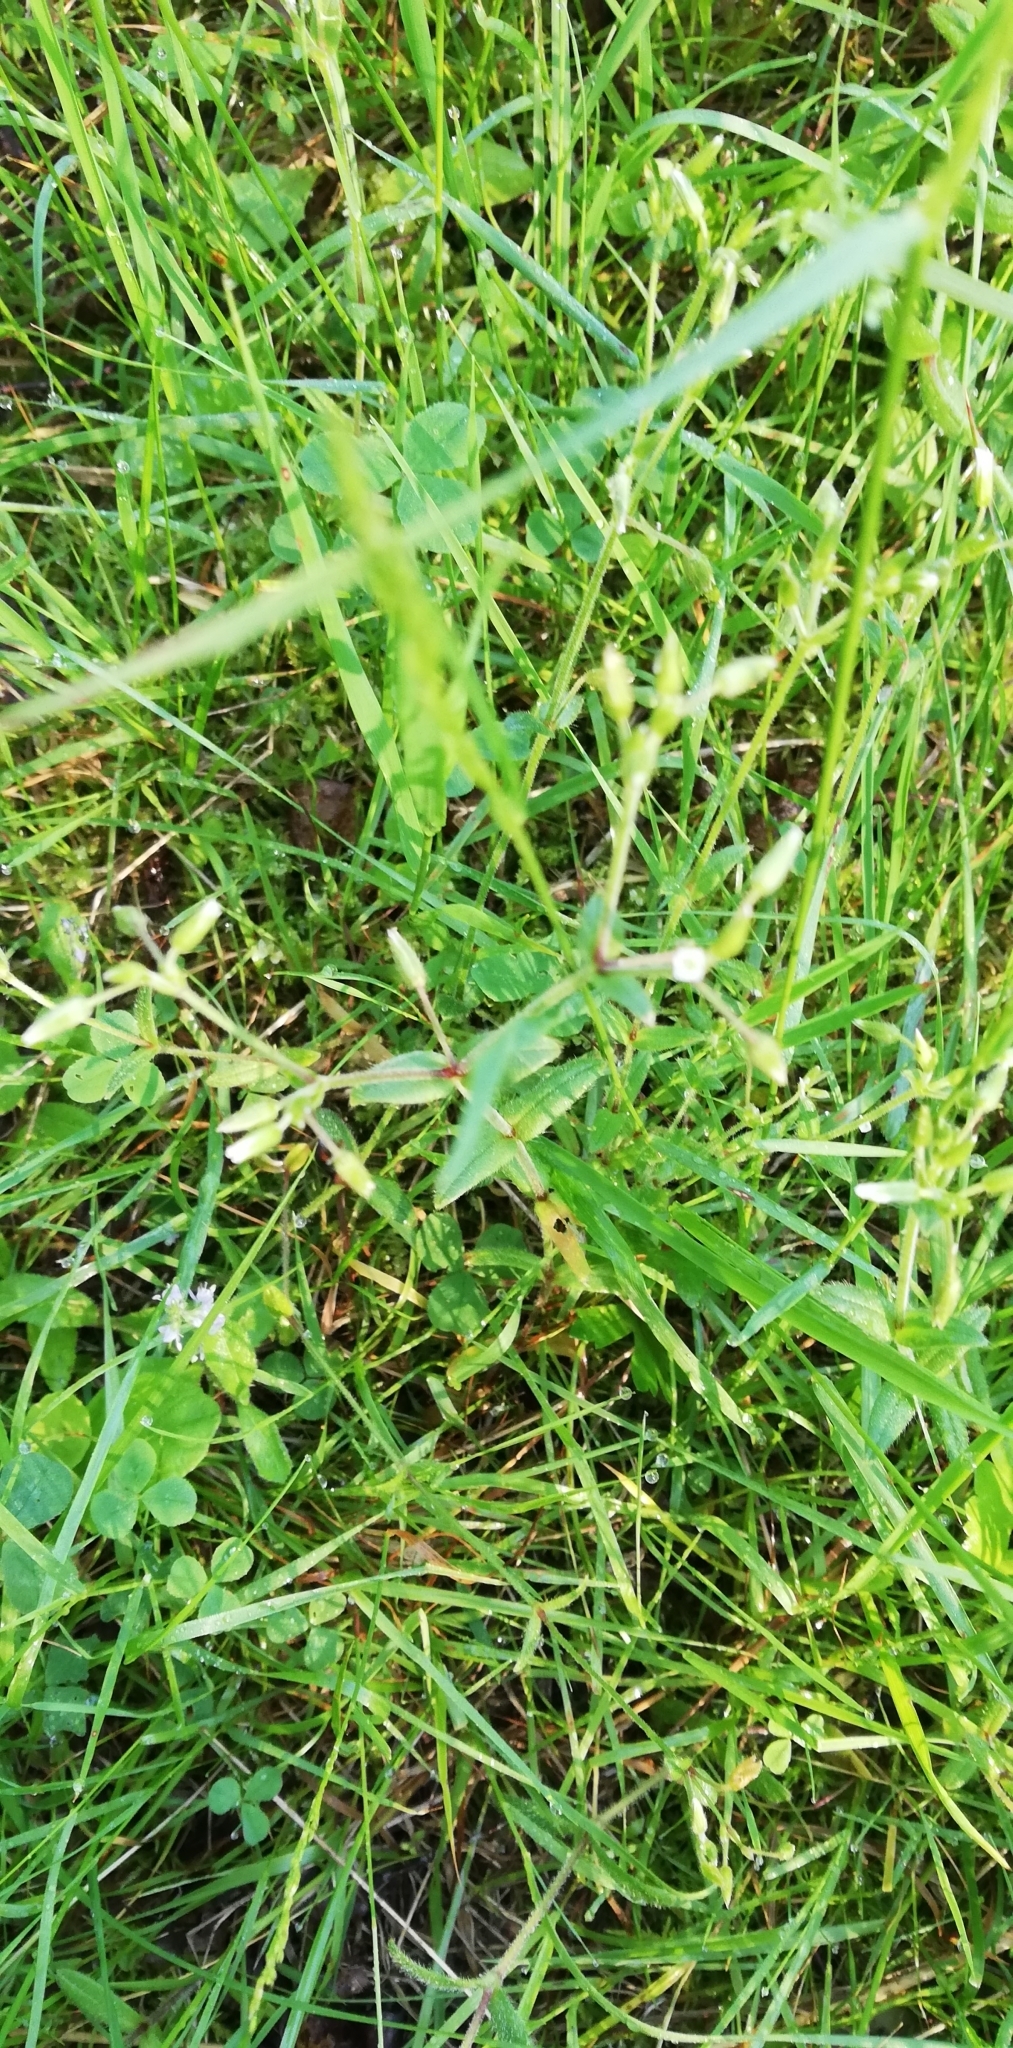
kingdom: Plantae
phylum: Tracheophyta
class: Magnoliopsida
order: Caryophyllales
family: Caryophyllaceae
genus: Cerastium
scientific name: Cerastium holosteoides
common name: Big chickweed
